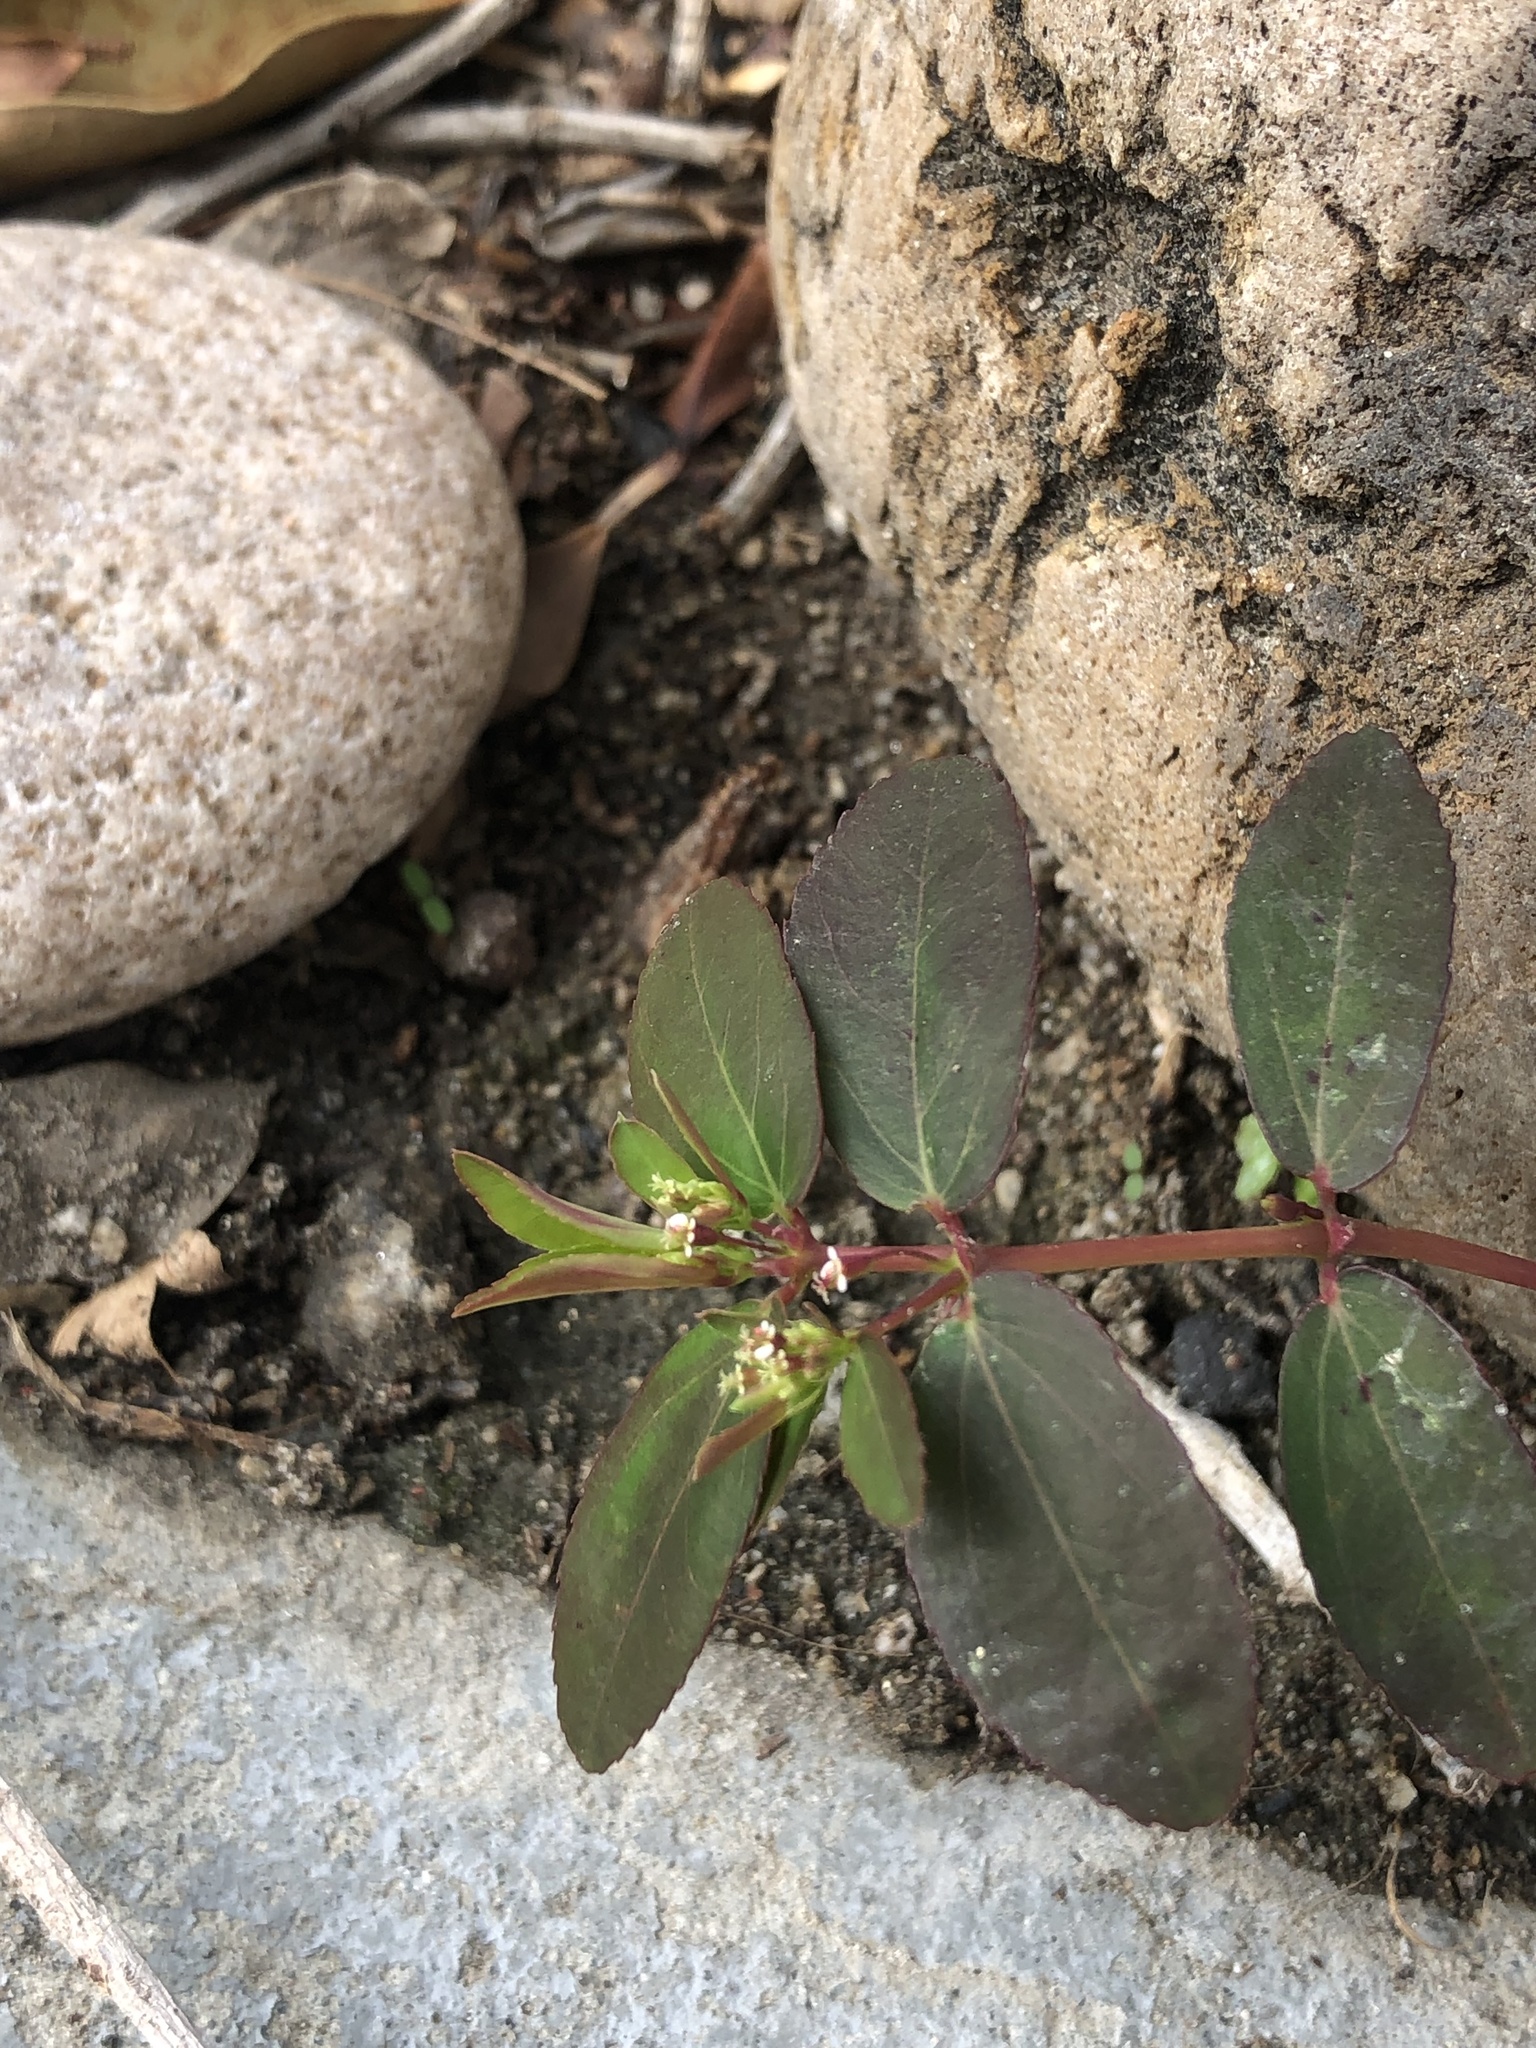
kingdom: Plantae
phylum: Tracheophyta
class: Magnoliopsida
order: Malpighiales
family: Euphorbiaceae
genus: Euphorbia
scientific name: Euphorbia hypericifolia
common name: Graceful sandmat
